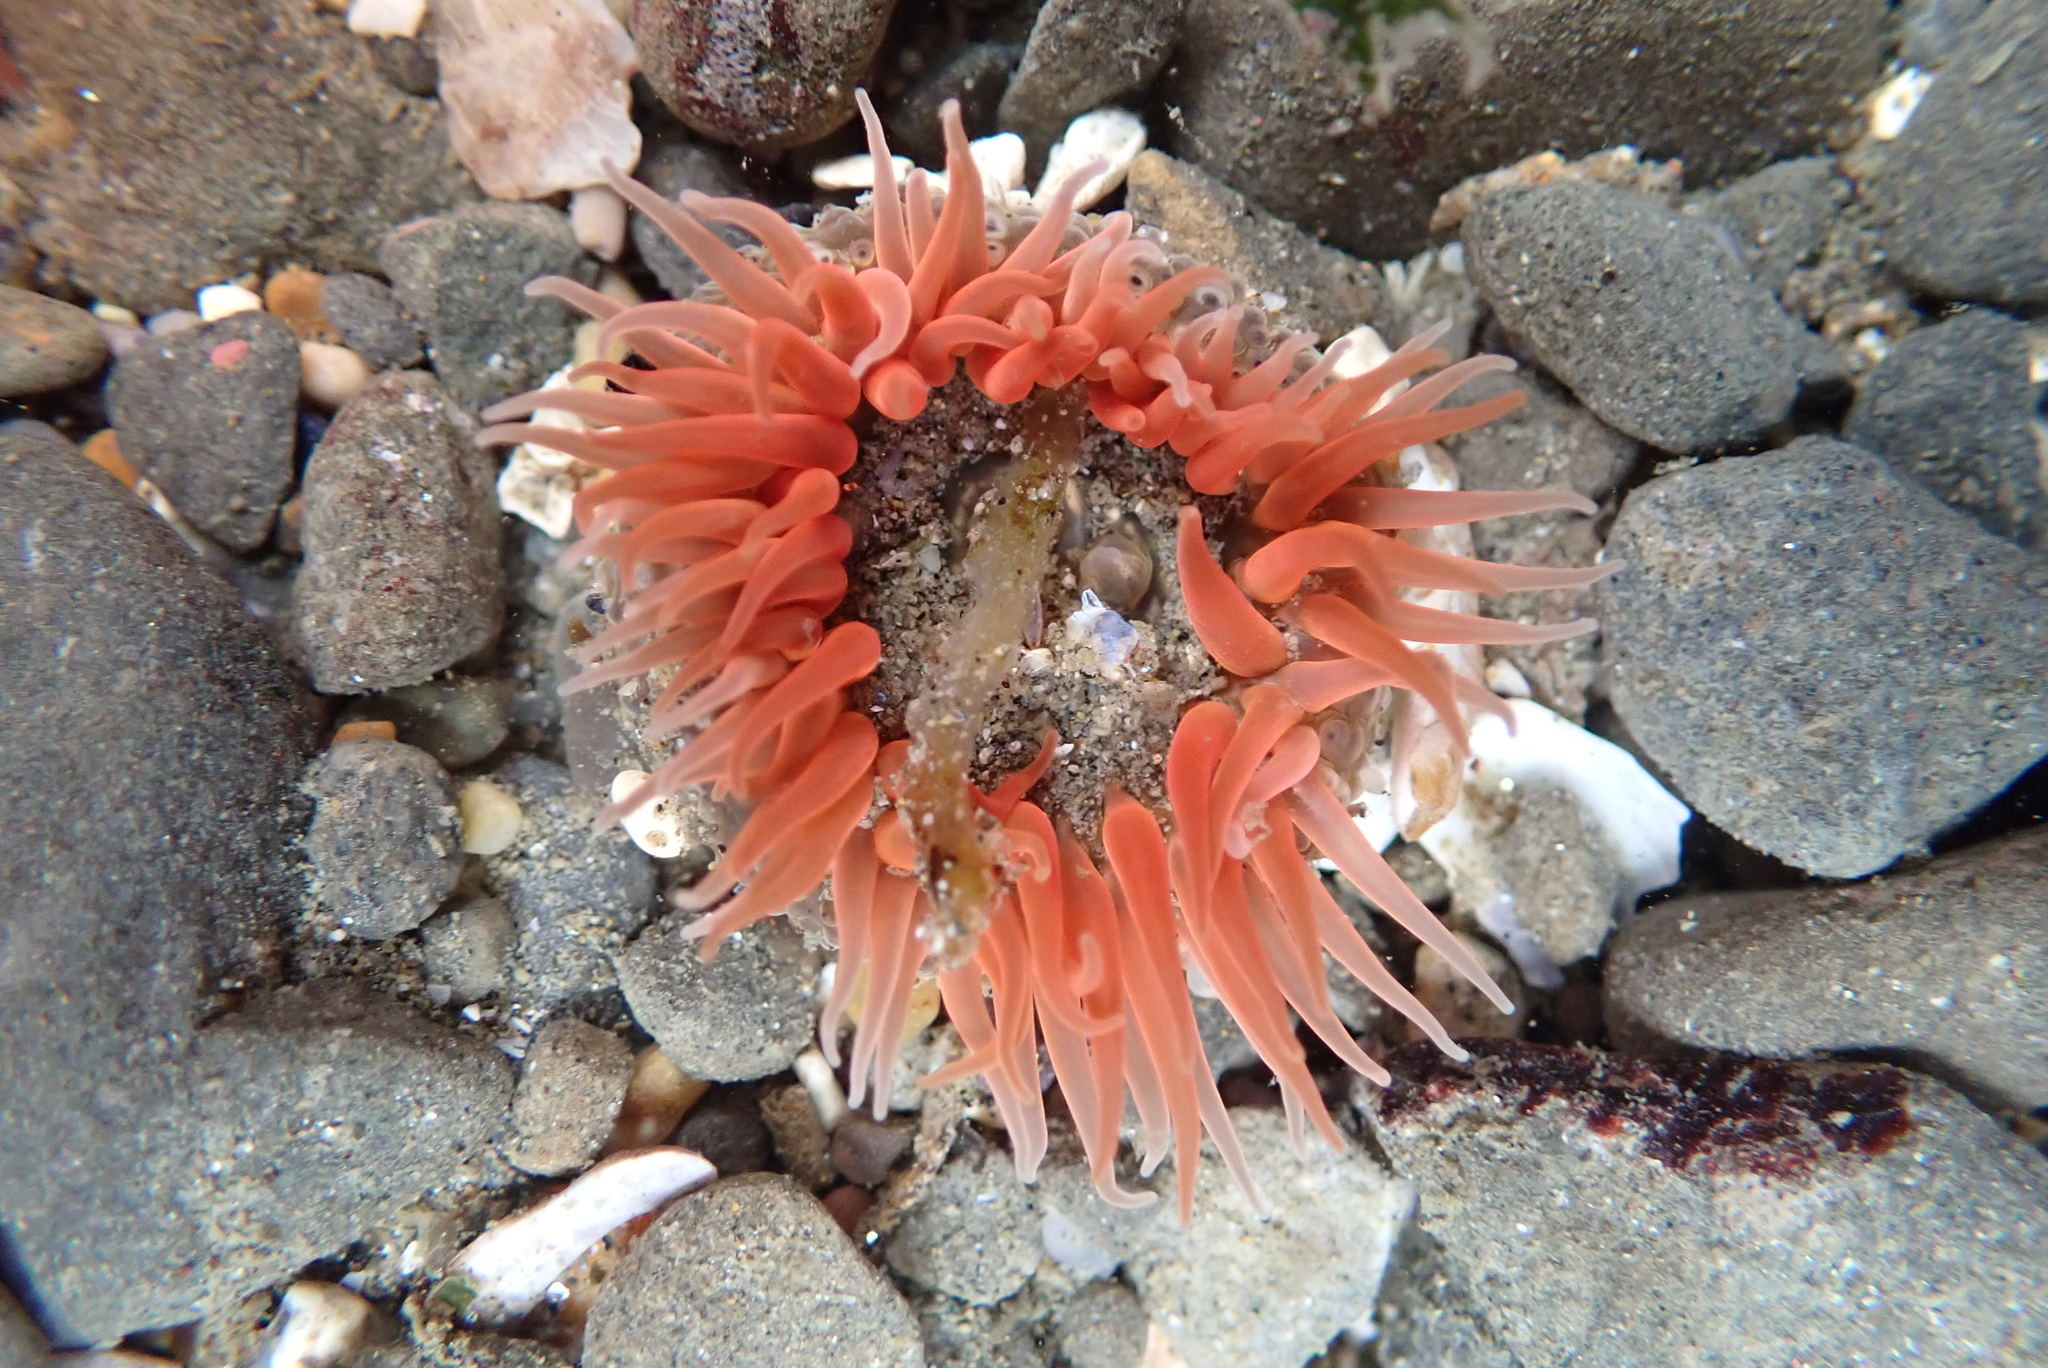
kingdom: Animalia
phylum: Cnidaria
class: Anthozoa
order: Actiniaria
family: Actiniidae
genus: Anthopleura
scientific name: Anthopleura artemisia
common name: Buried sea anemone
